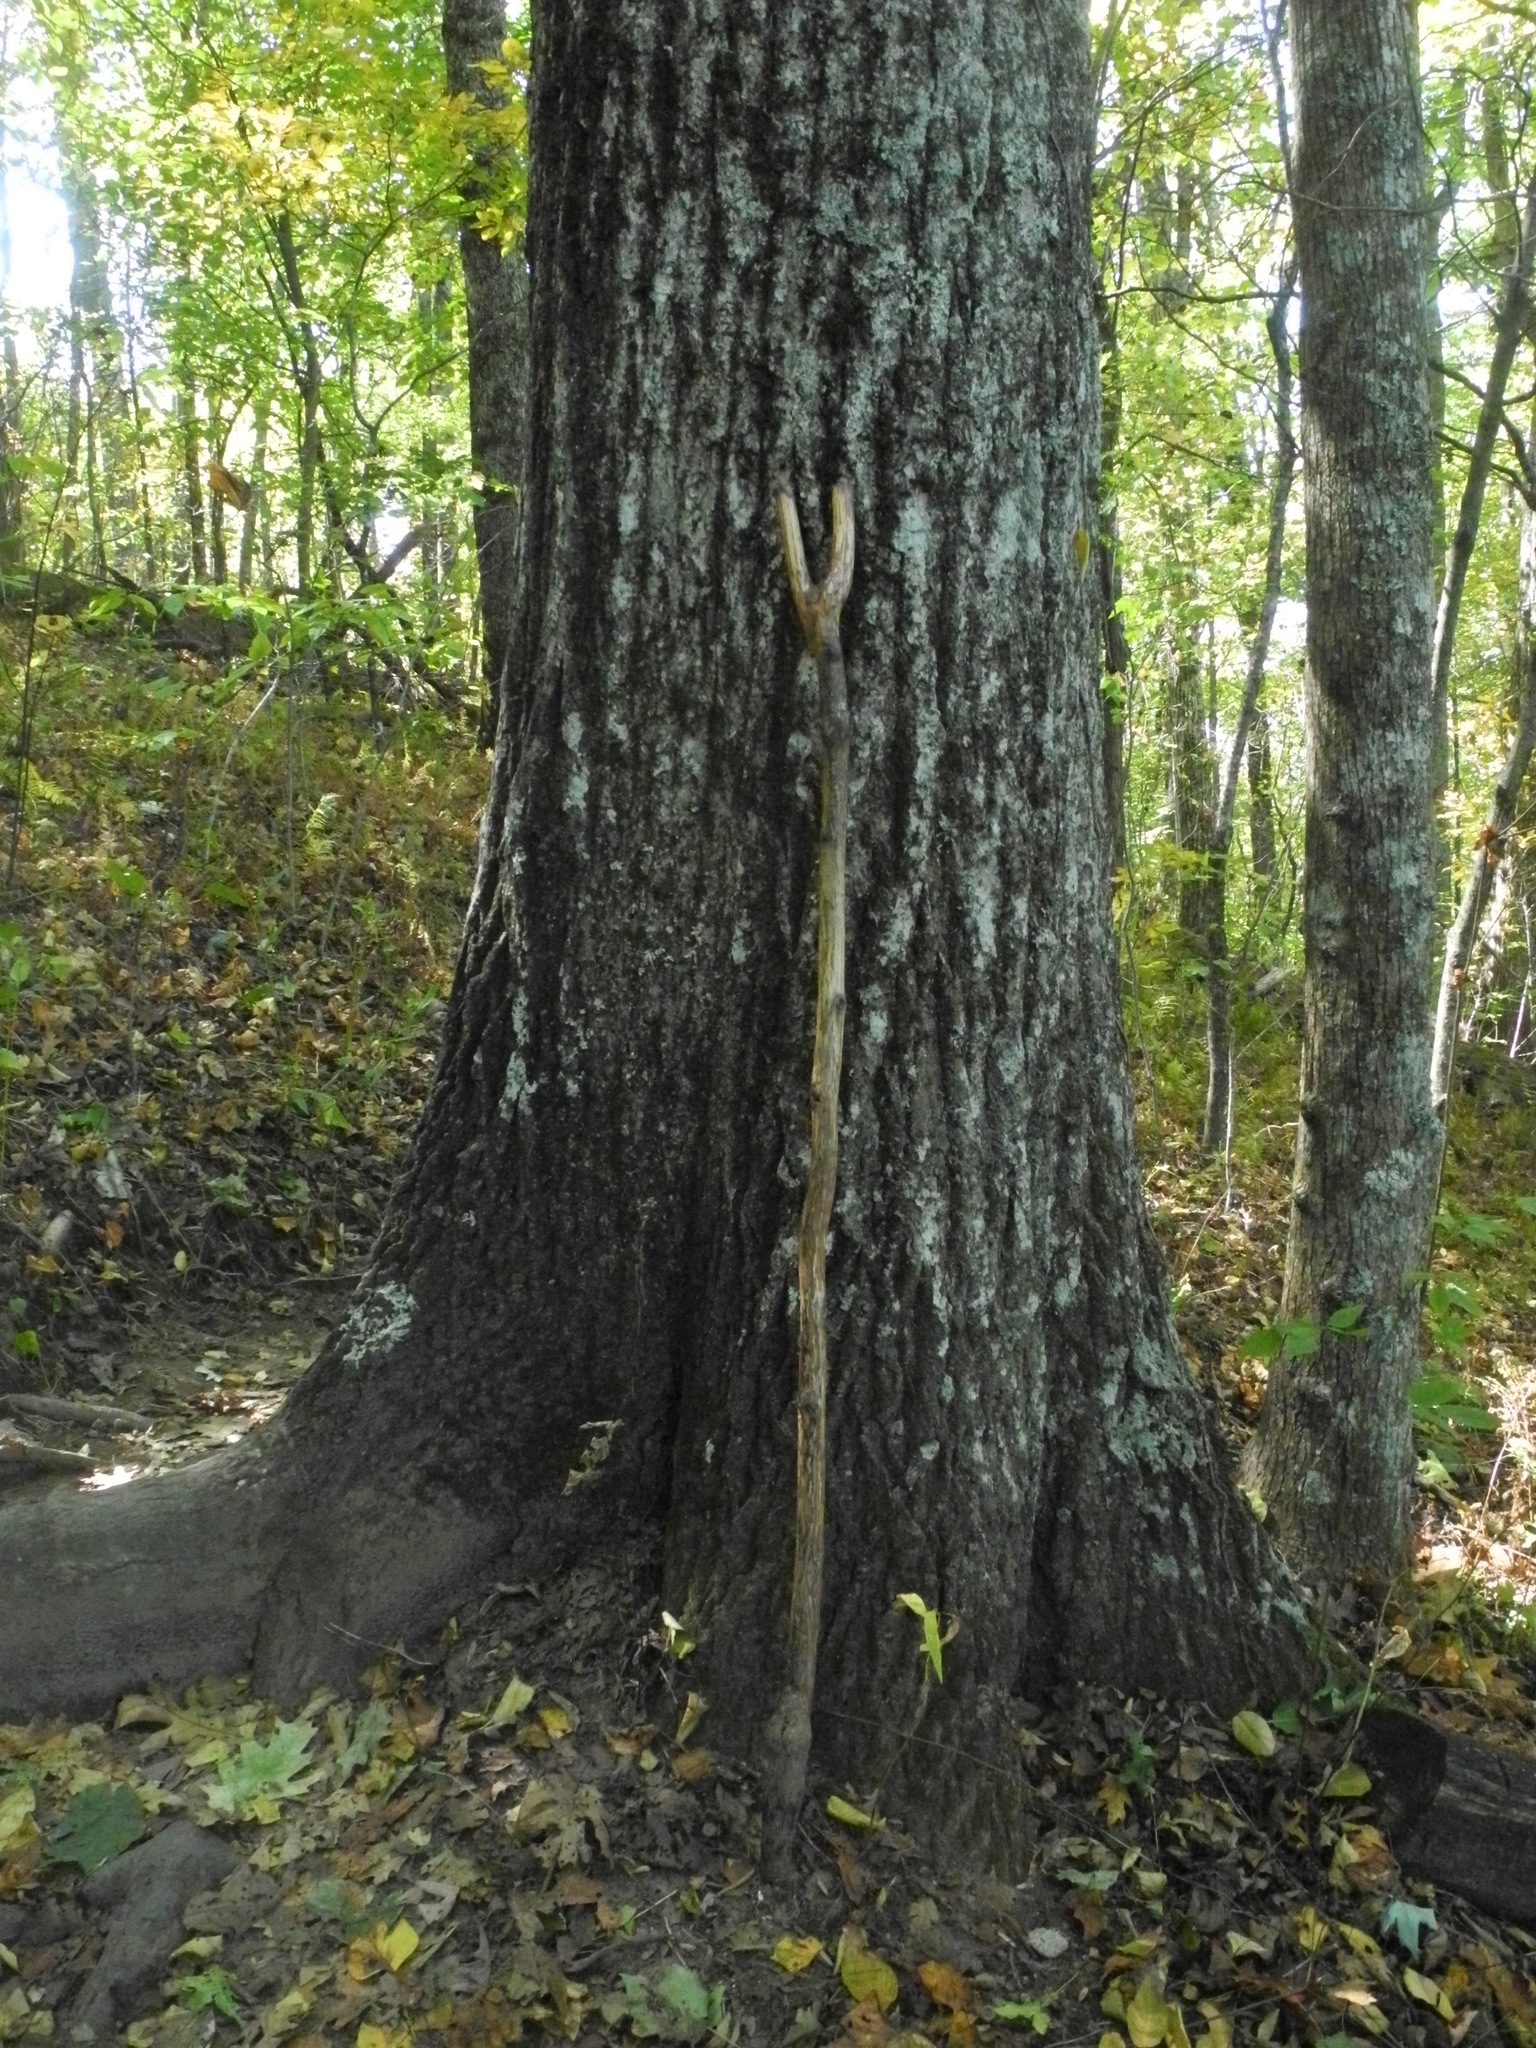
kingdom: Plantae
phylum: Tracheophyta
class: Magnoliopsida
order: Fagales
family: Fagaceae
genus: Quercus
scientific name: Quercus rubra
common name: Red oak
